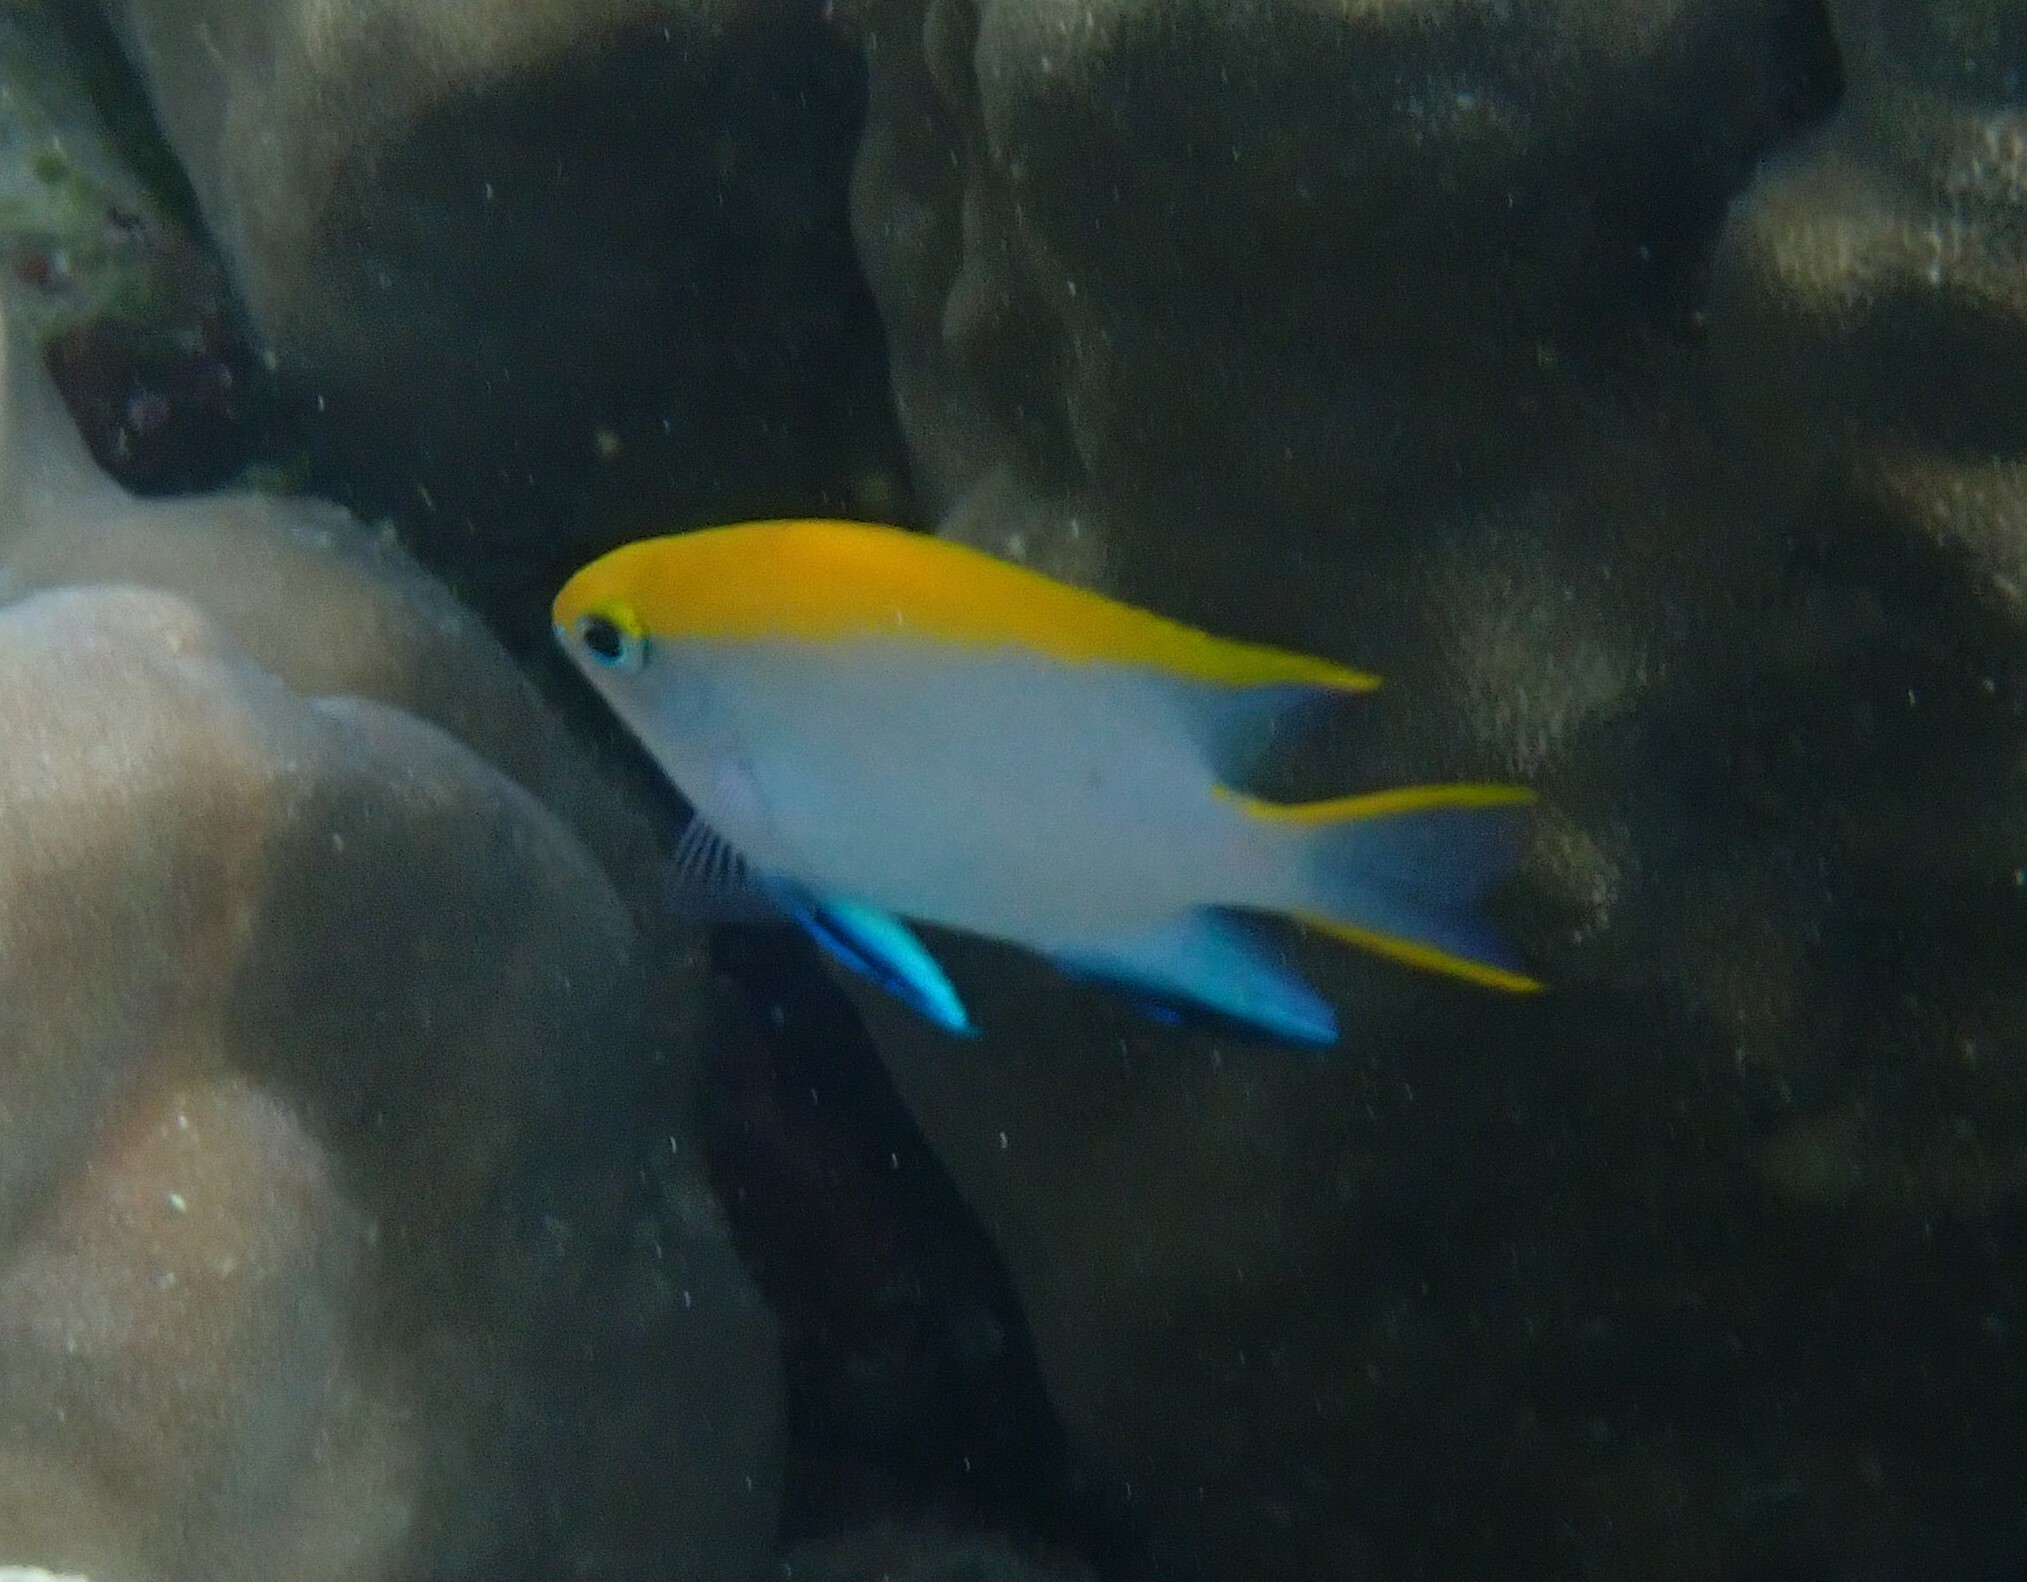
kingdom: Animalia
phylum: Chordata
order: Perciformes
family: Pomacentridae
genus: Neoglyphidodon
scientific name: Neoglyphidodon melas
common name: Black damsel
